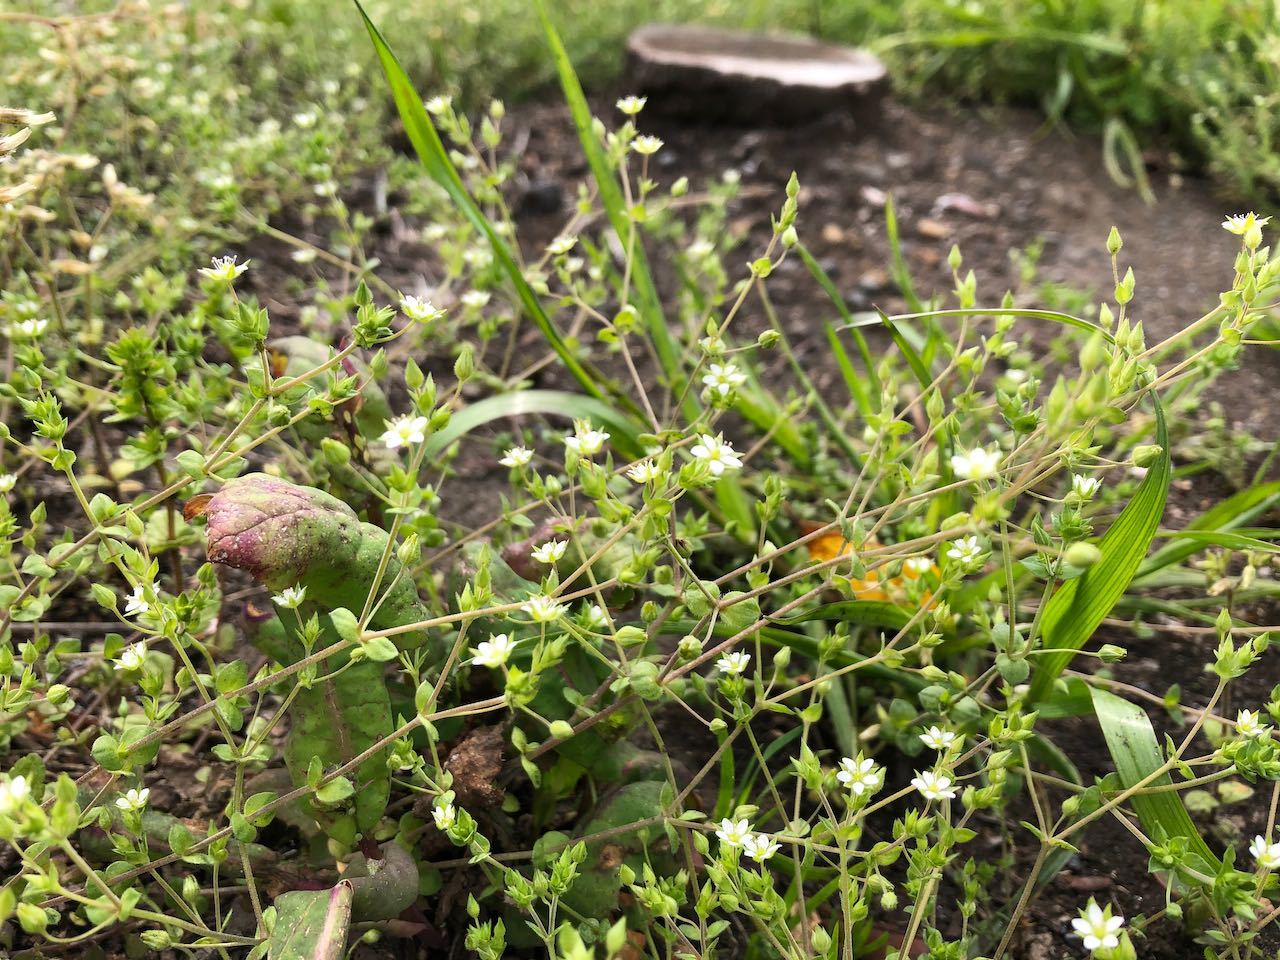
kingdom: Plantae
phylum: Tracheophyta
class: Magnoliopsida
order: Caryophyllales
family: Caryophyllaceae
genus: Arenaria
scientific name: Arenaria serpyllifolia
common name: Thyme-leaved sandwort
